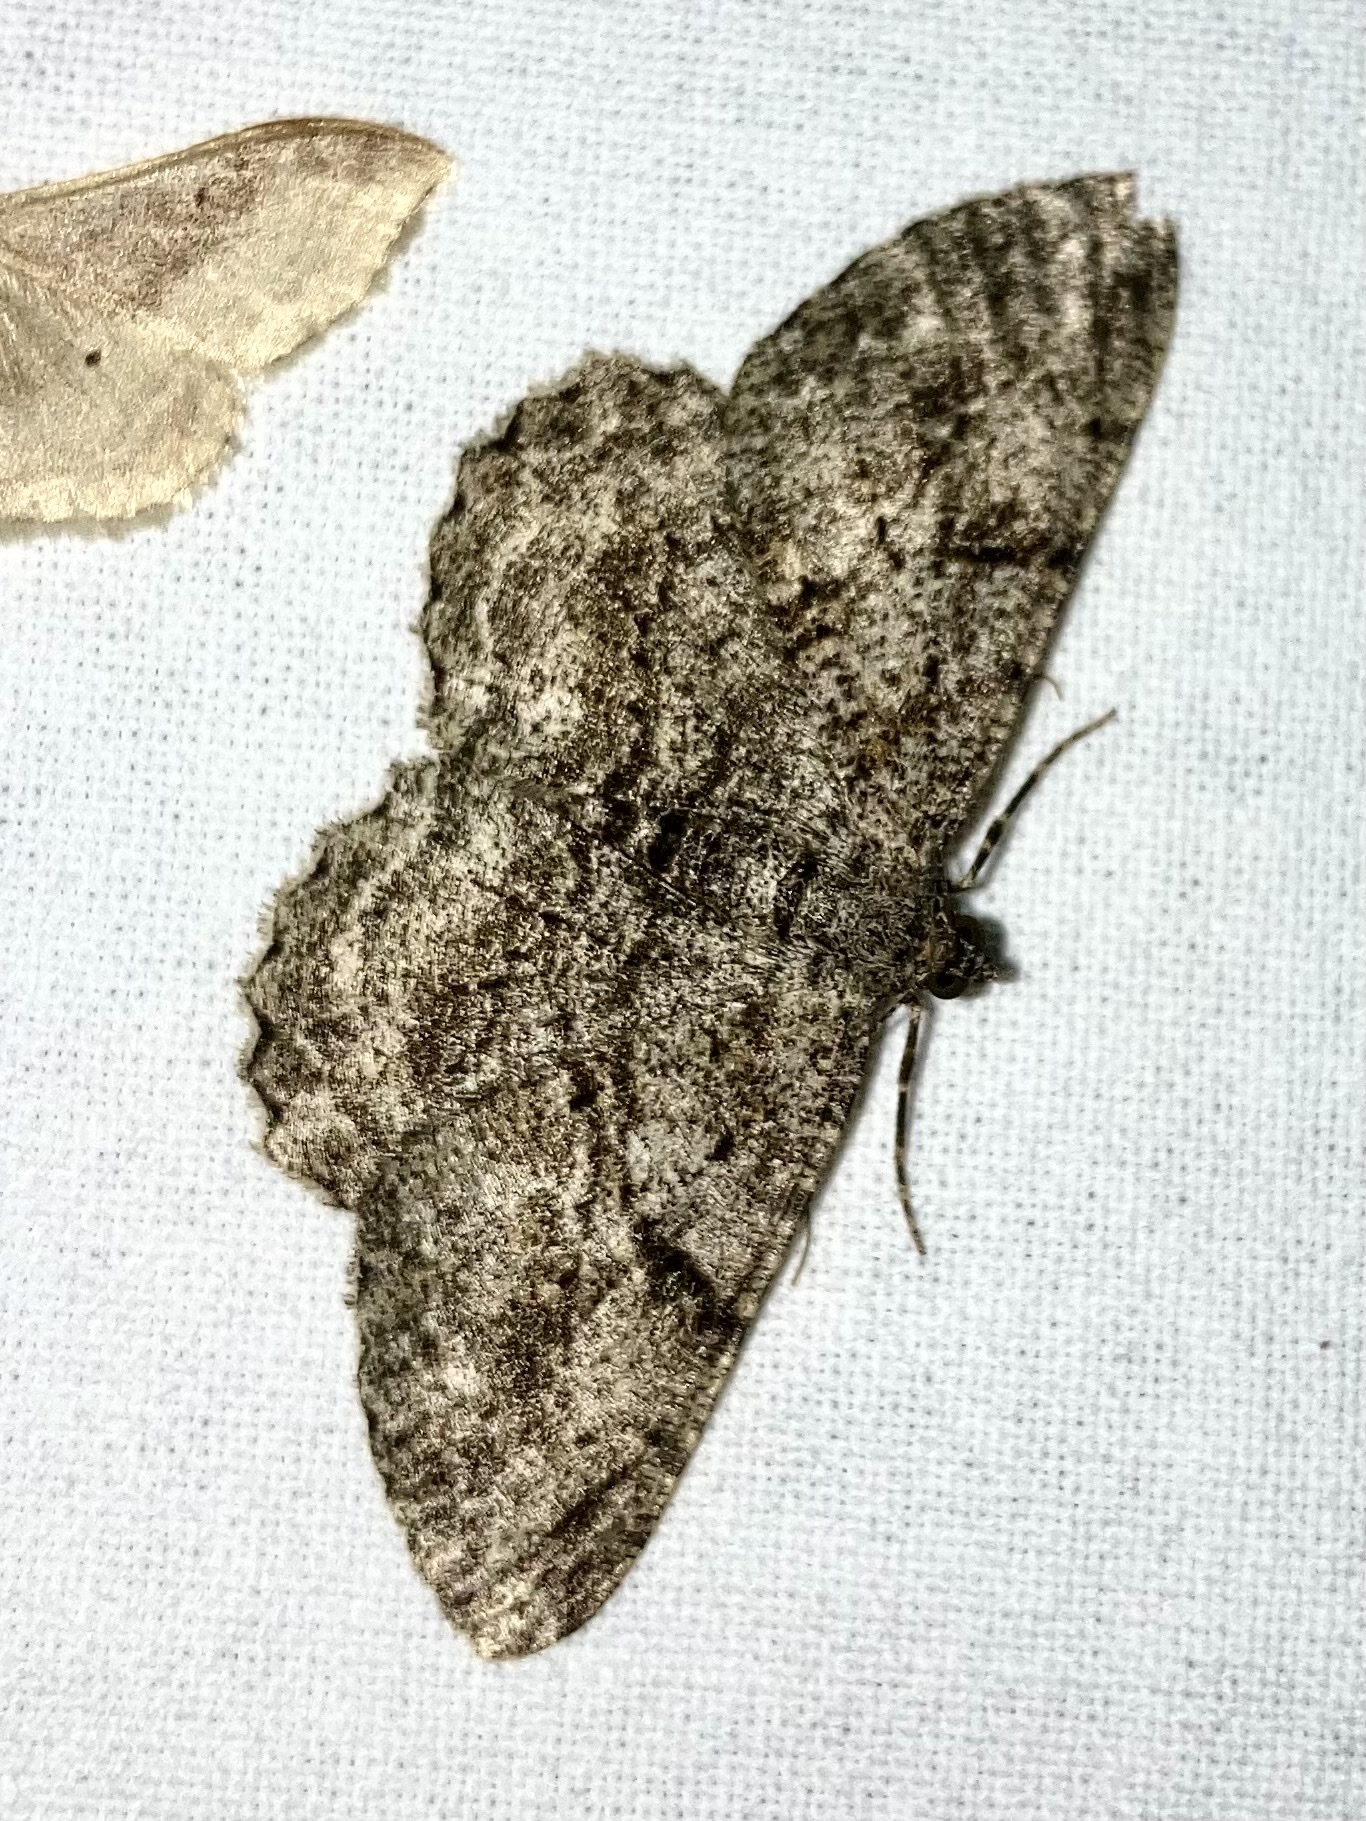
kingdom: Animalia
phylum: Arthropoda
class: Insecta
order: Lepidoptera
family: Geometridae
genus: Peribatodes
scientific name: Peribatodes rhomboidaria
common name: Willow beauty
